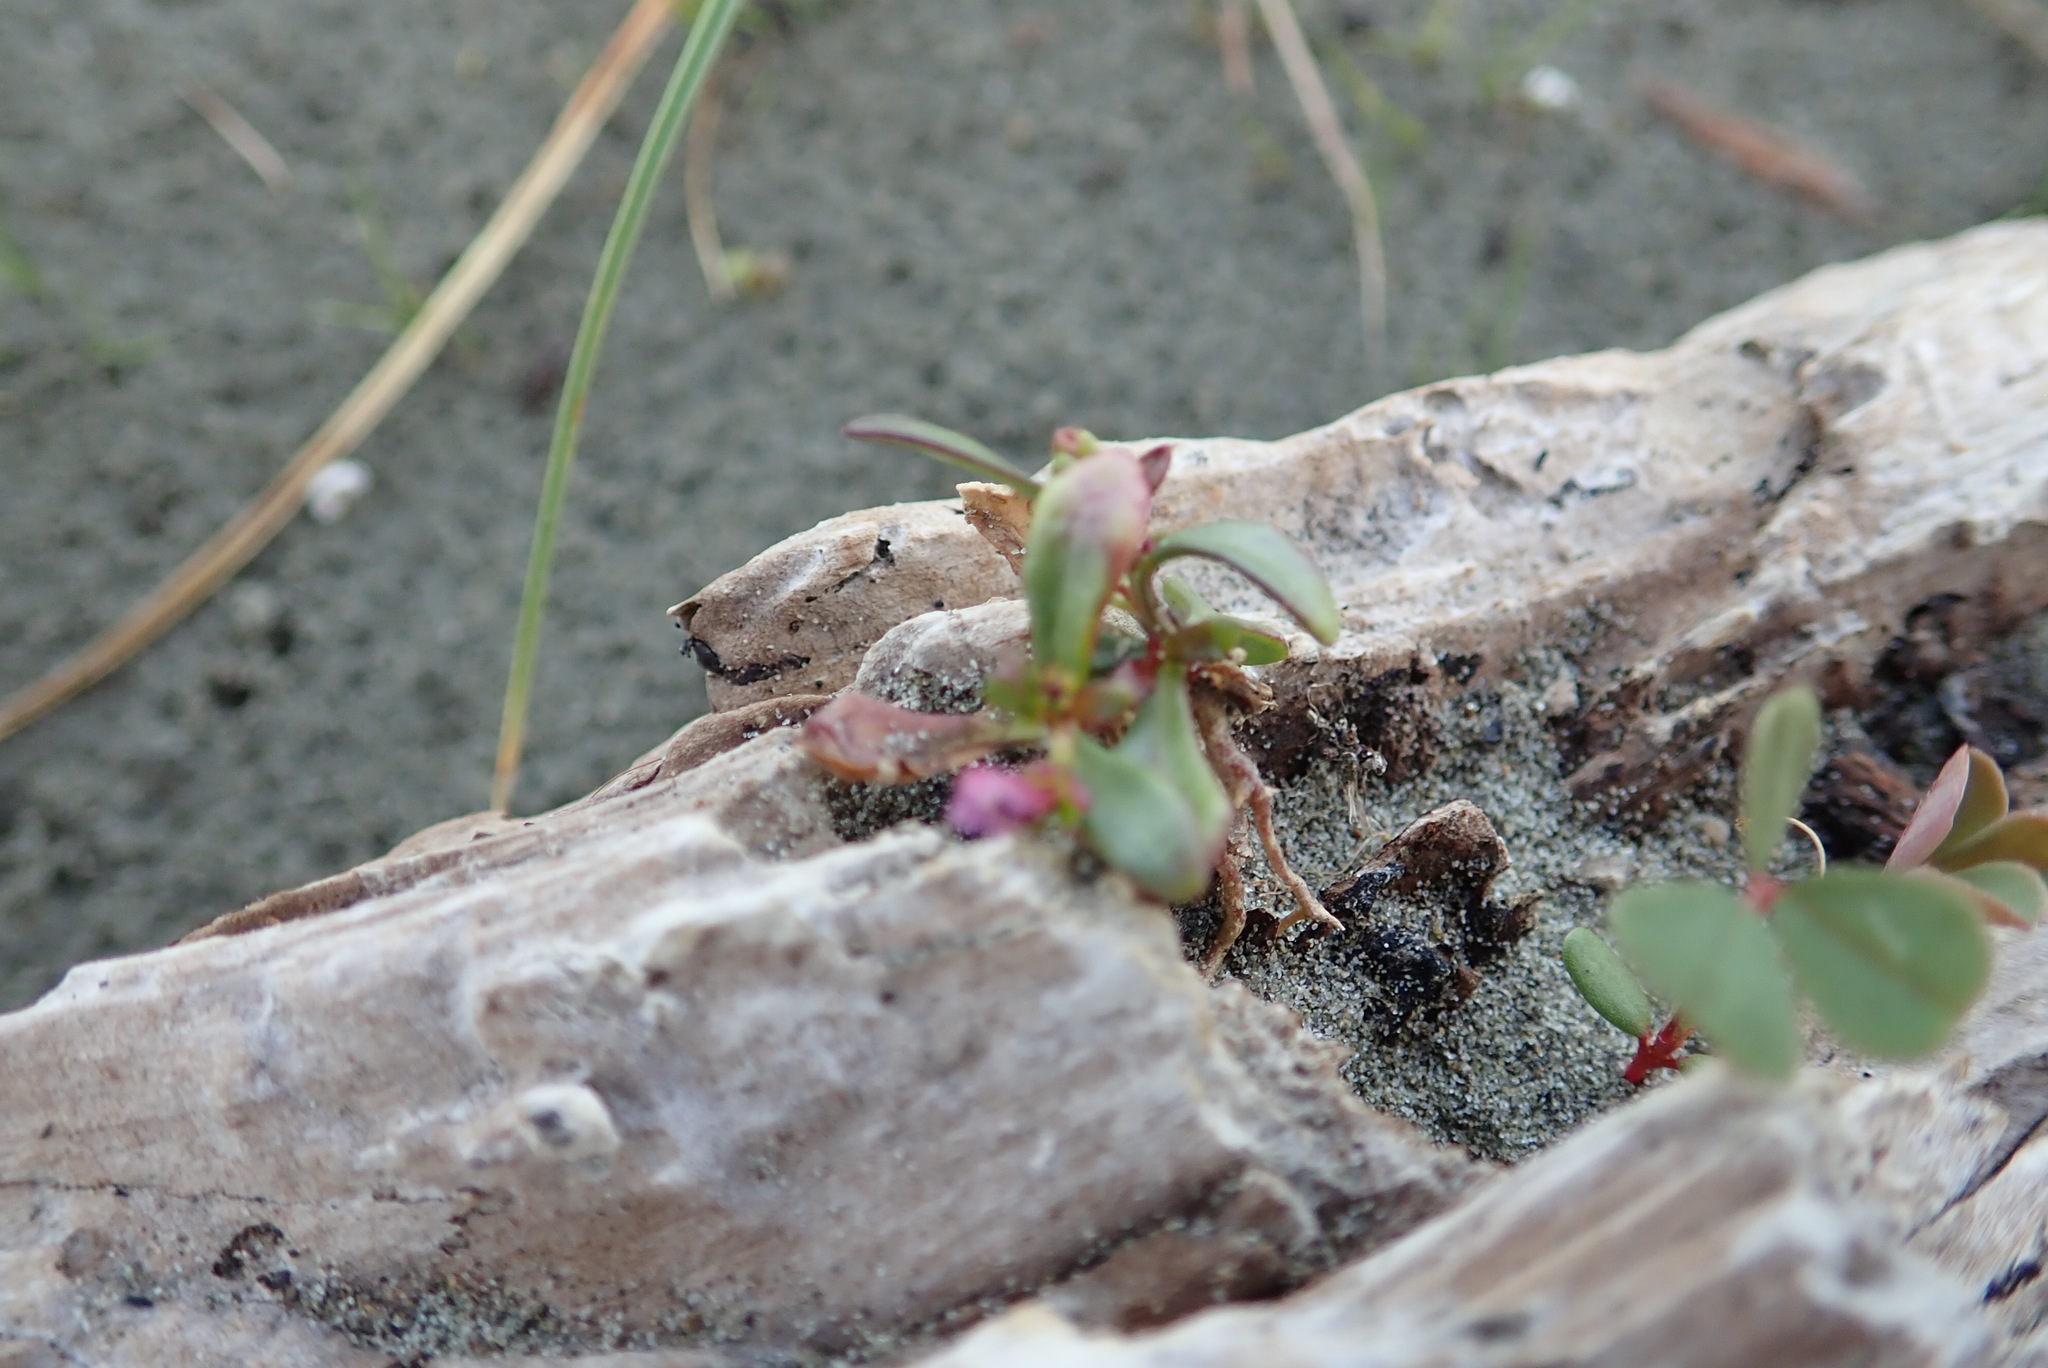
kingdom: Plantae
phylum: Tracheophyta
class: Magnoliopsida
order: Asterales
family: Campanulaceae
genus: Lobelia
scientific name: Lobelia anceps
